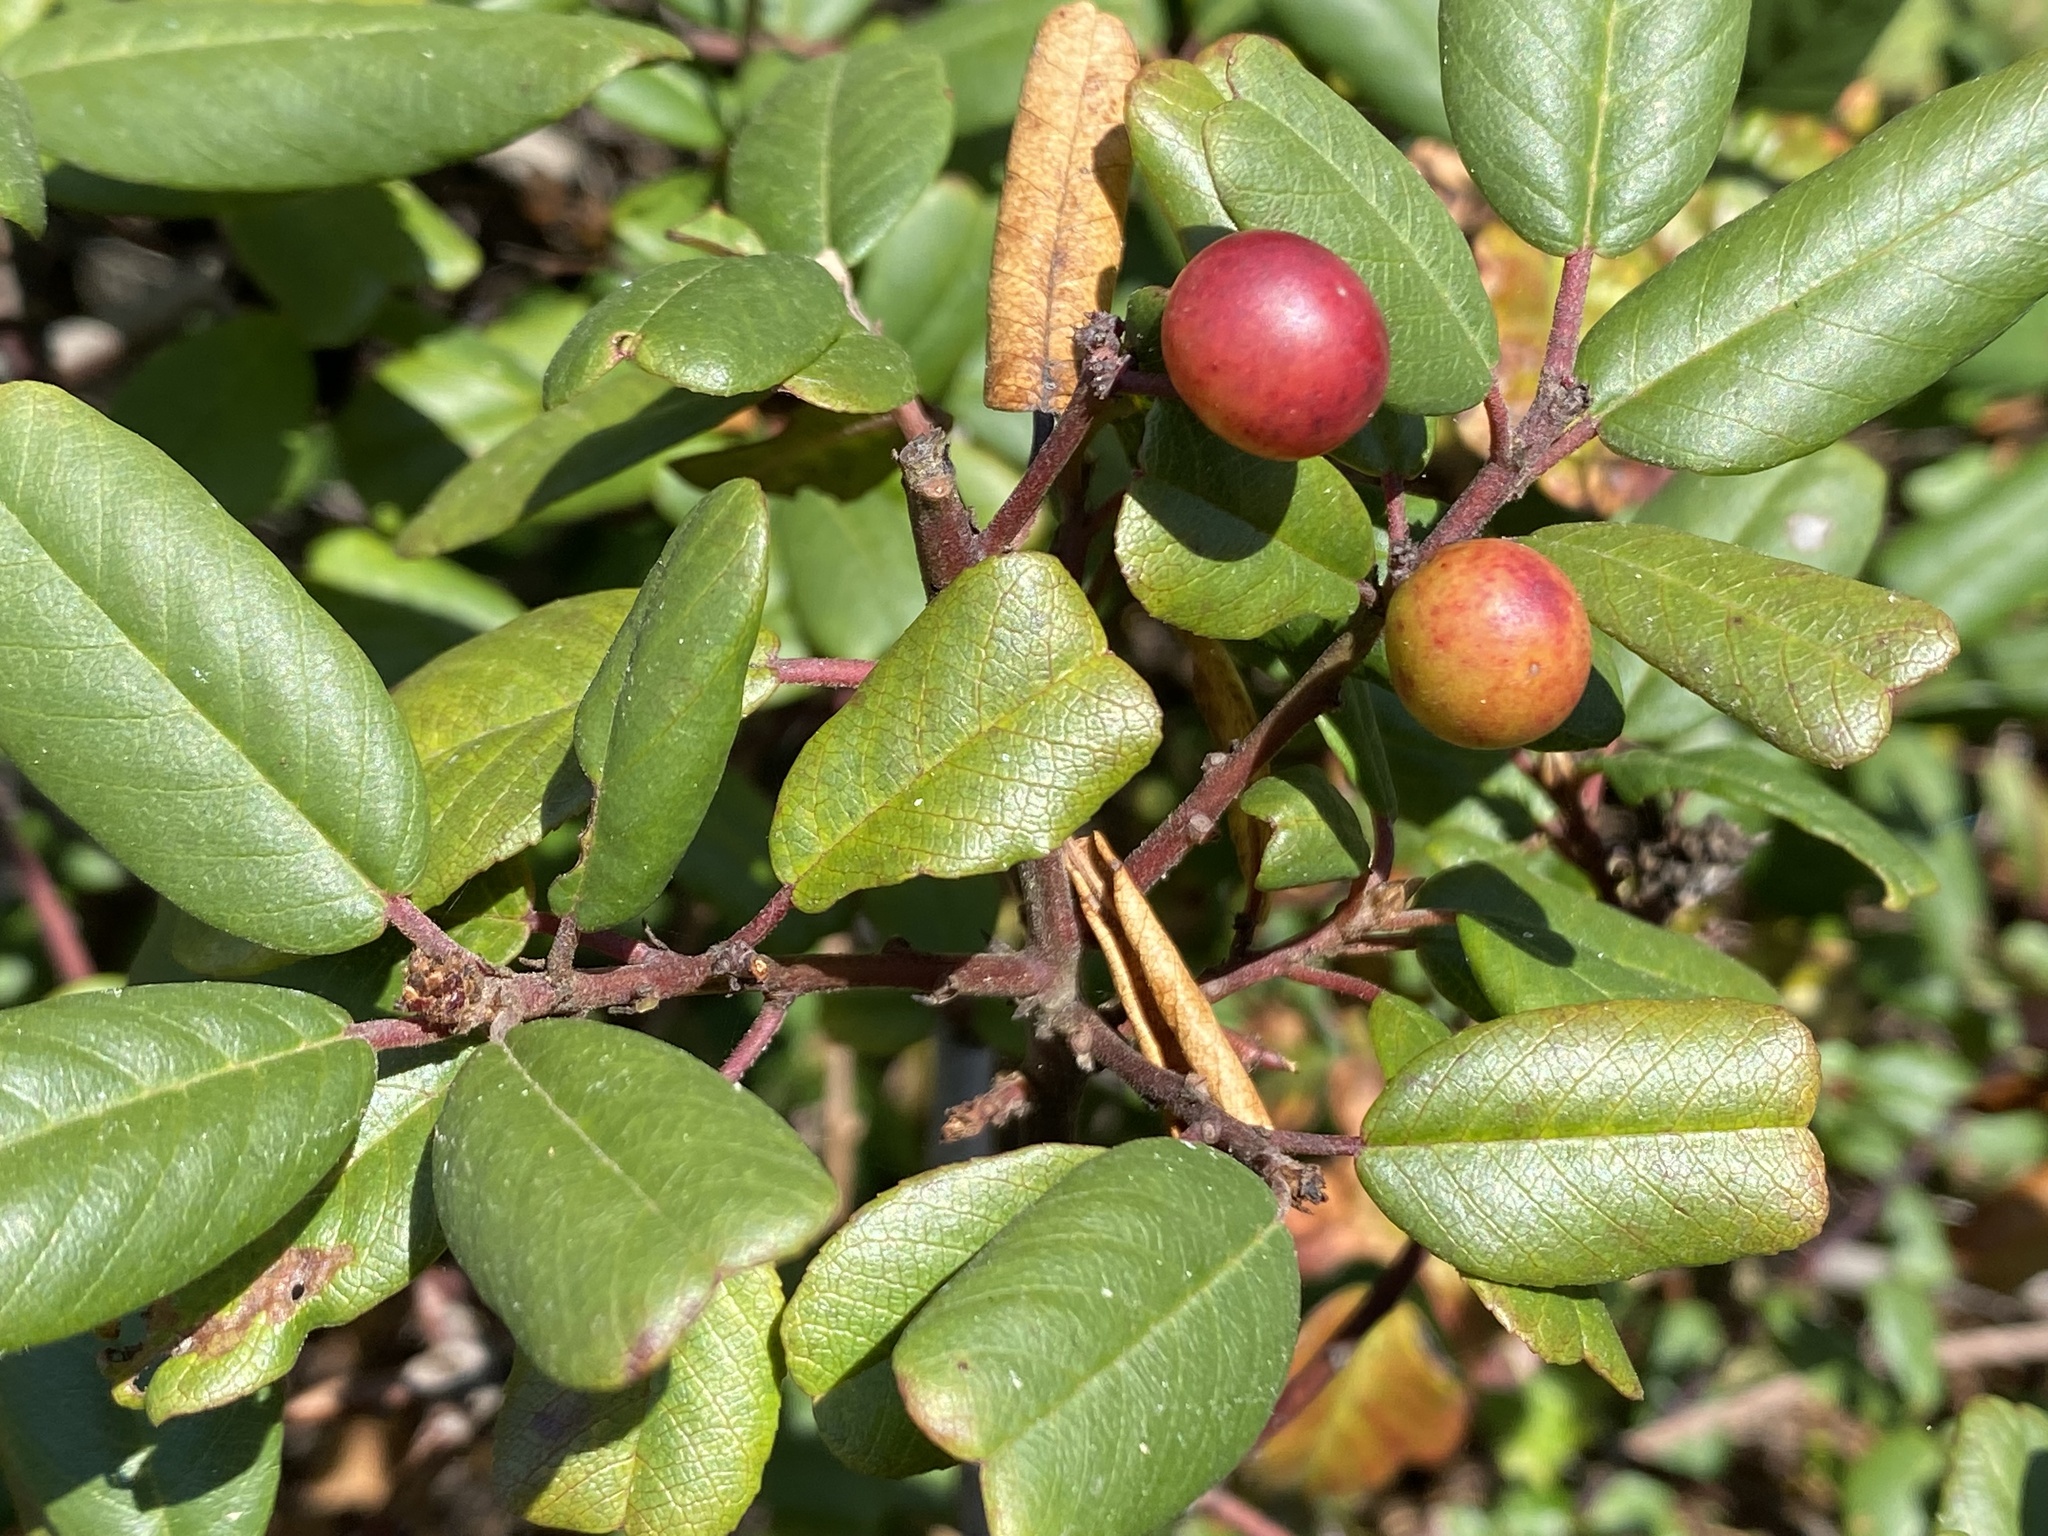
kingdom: Plantae
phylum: Tracheophyta
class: Magnoliopsida
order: Rosales
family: Rhamnaceae
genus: Frangula
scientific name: Frangula californica
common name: California buckthorn
